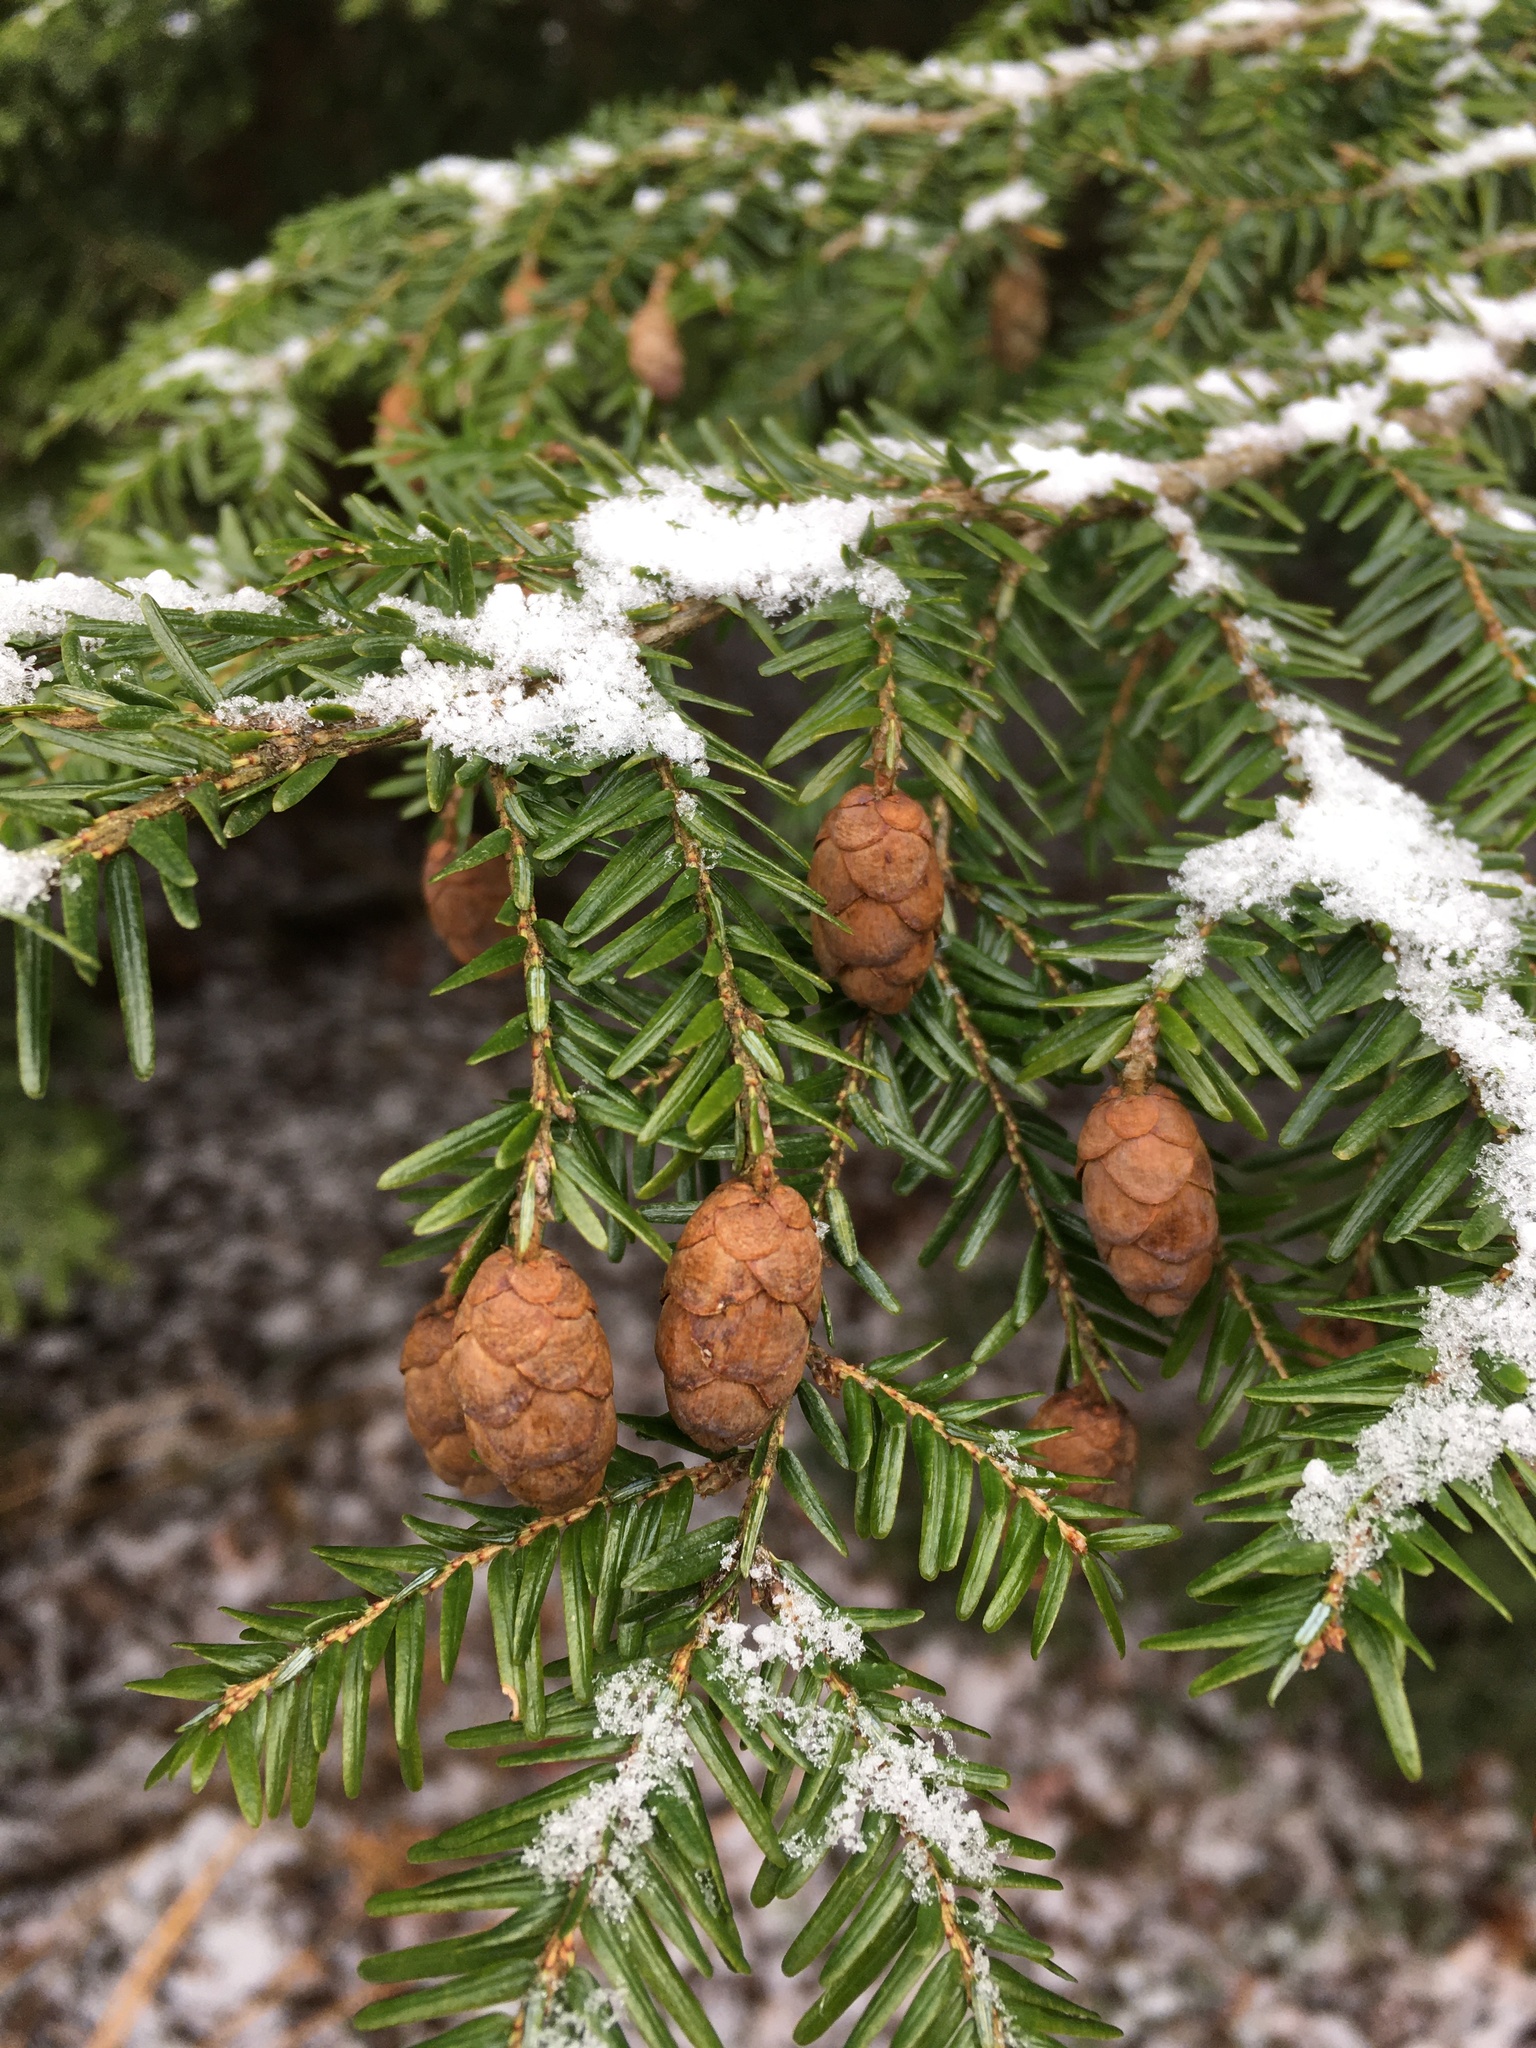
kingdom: Plantae
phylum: Tracheophyta
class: Pinopsida
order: Pinales
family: Pinaceae
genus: Tsuga
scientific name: Tsuga canadensis
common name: Eastern hemlock
